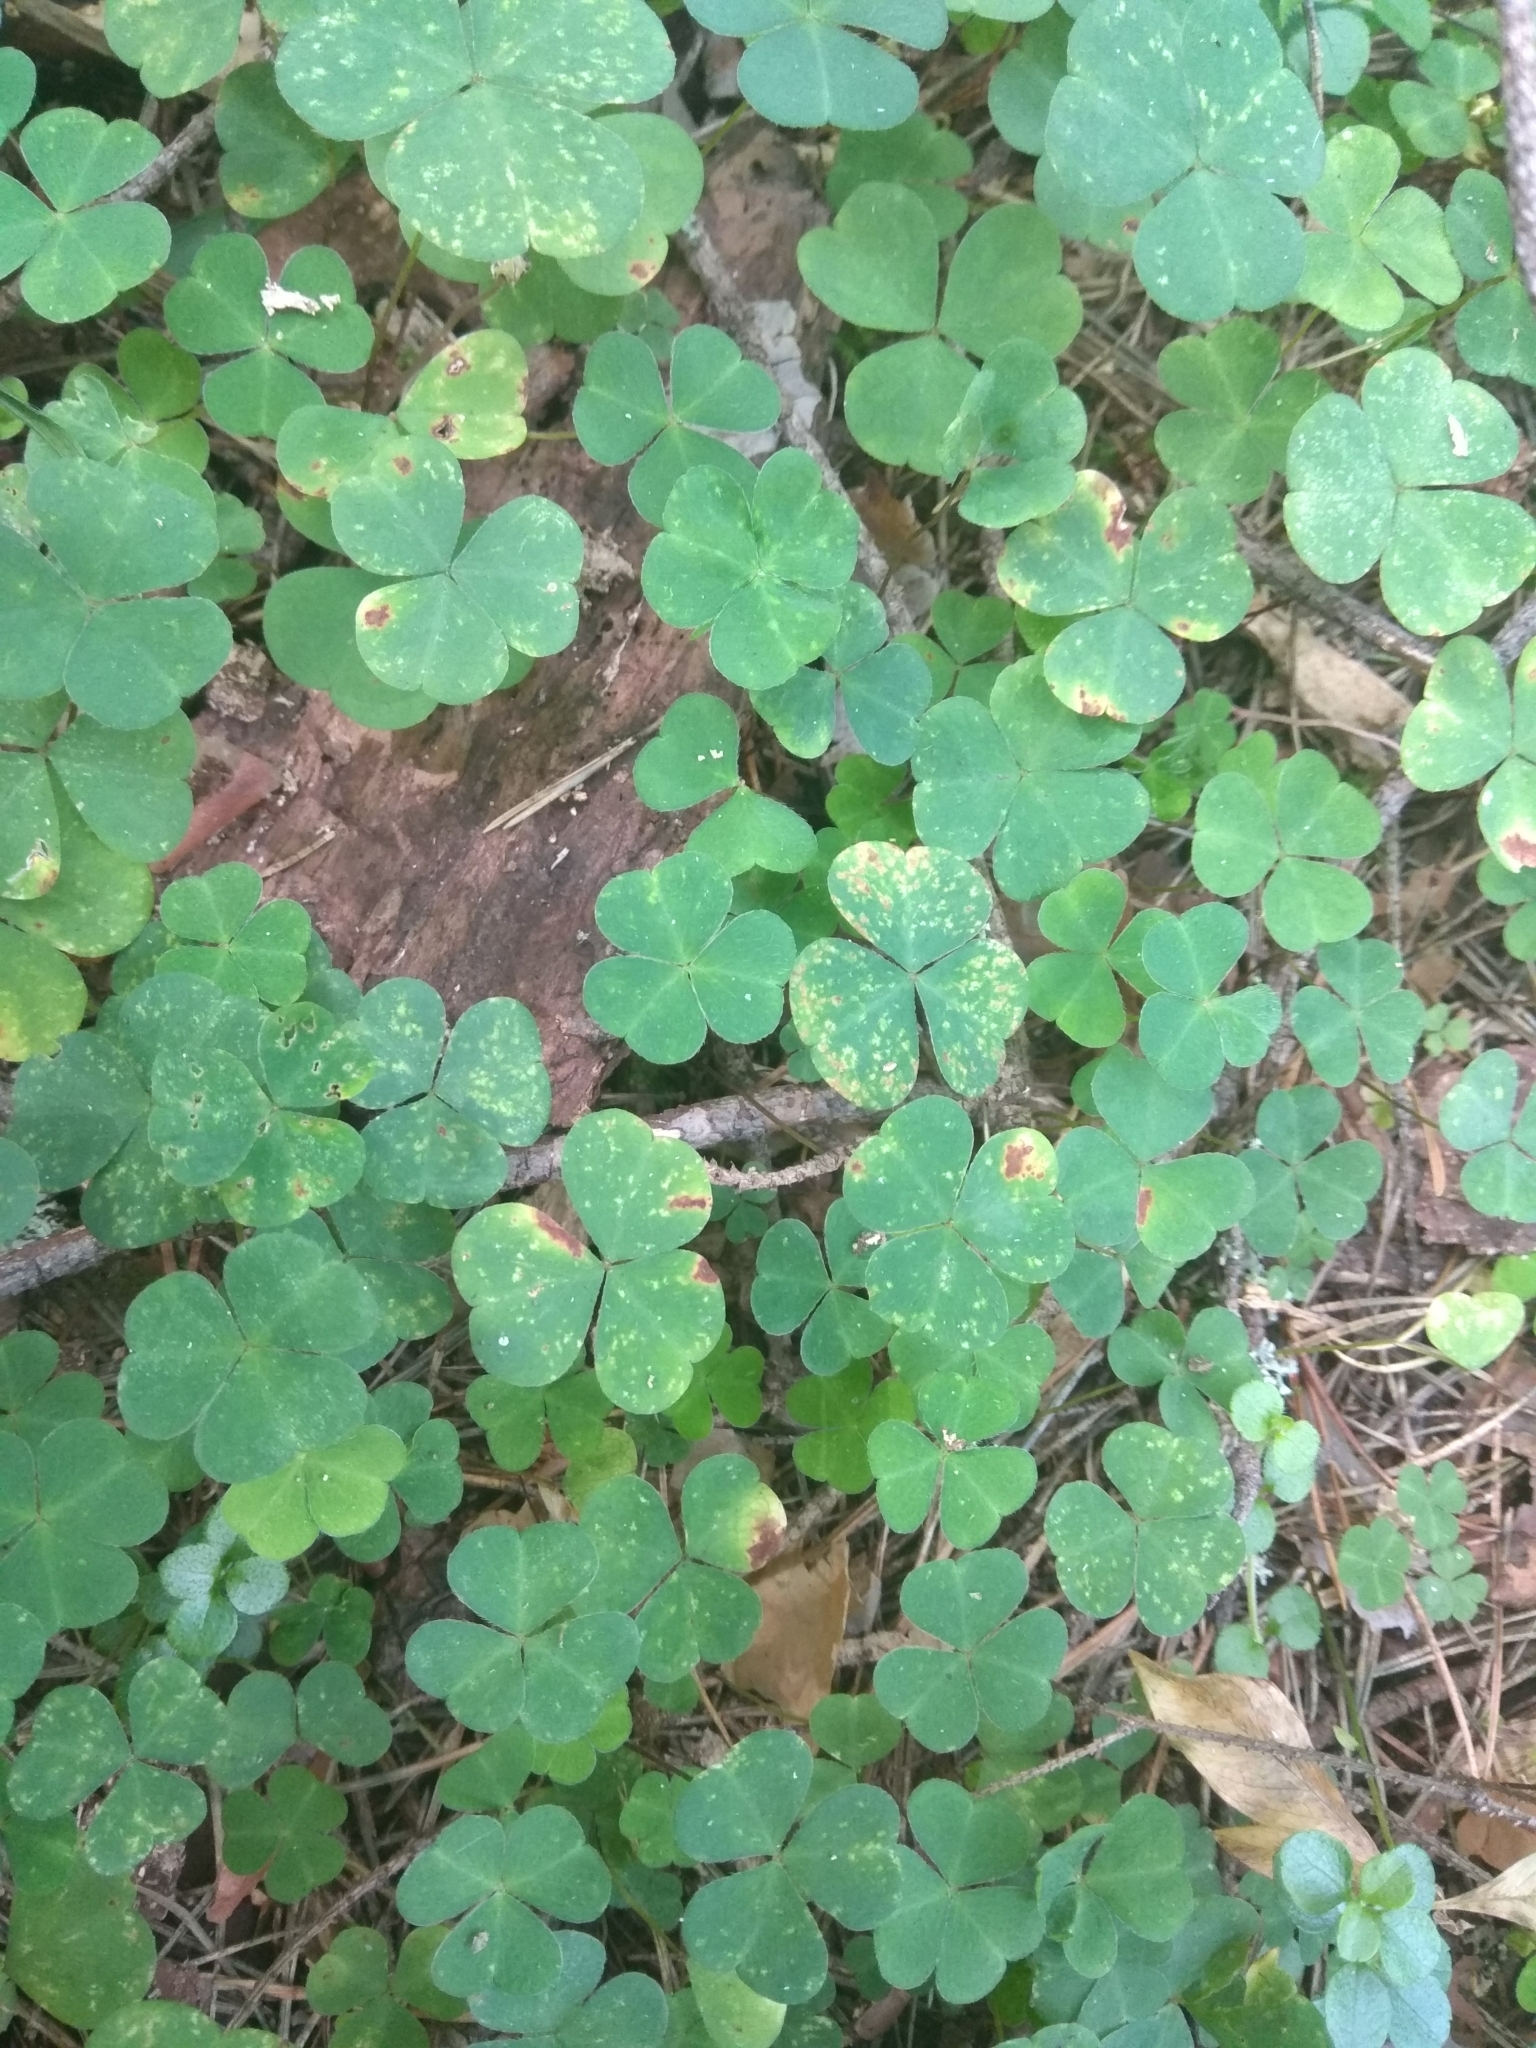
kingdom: Plantae
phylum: Tracheophyta
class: Magnoliopsida
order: Oxalidales
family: Oxalidaceae
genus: Oxalis
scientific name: Oxalis acetosella
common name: Wood-sorrel
